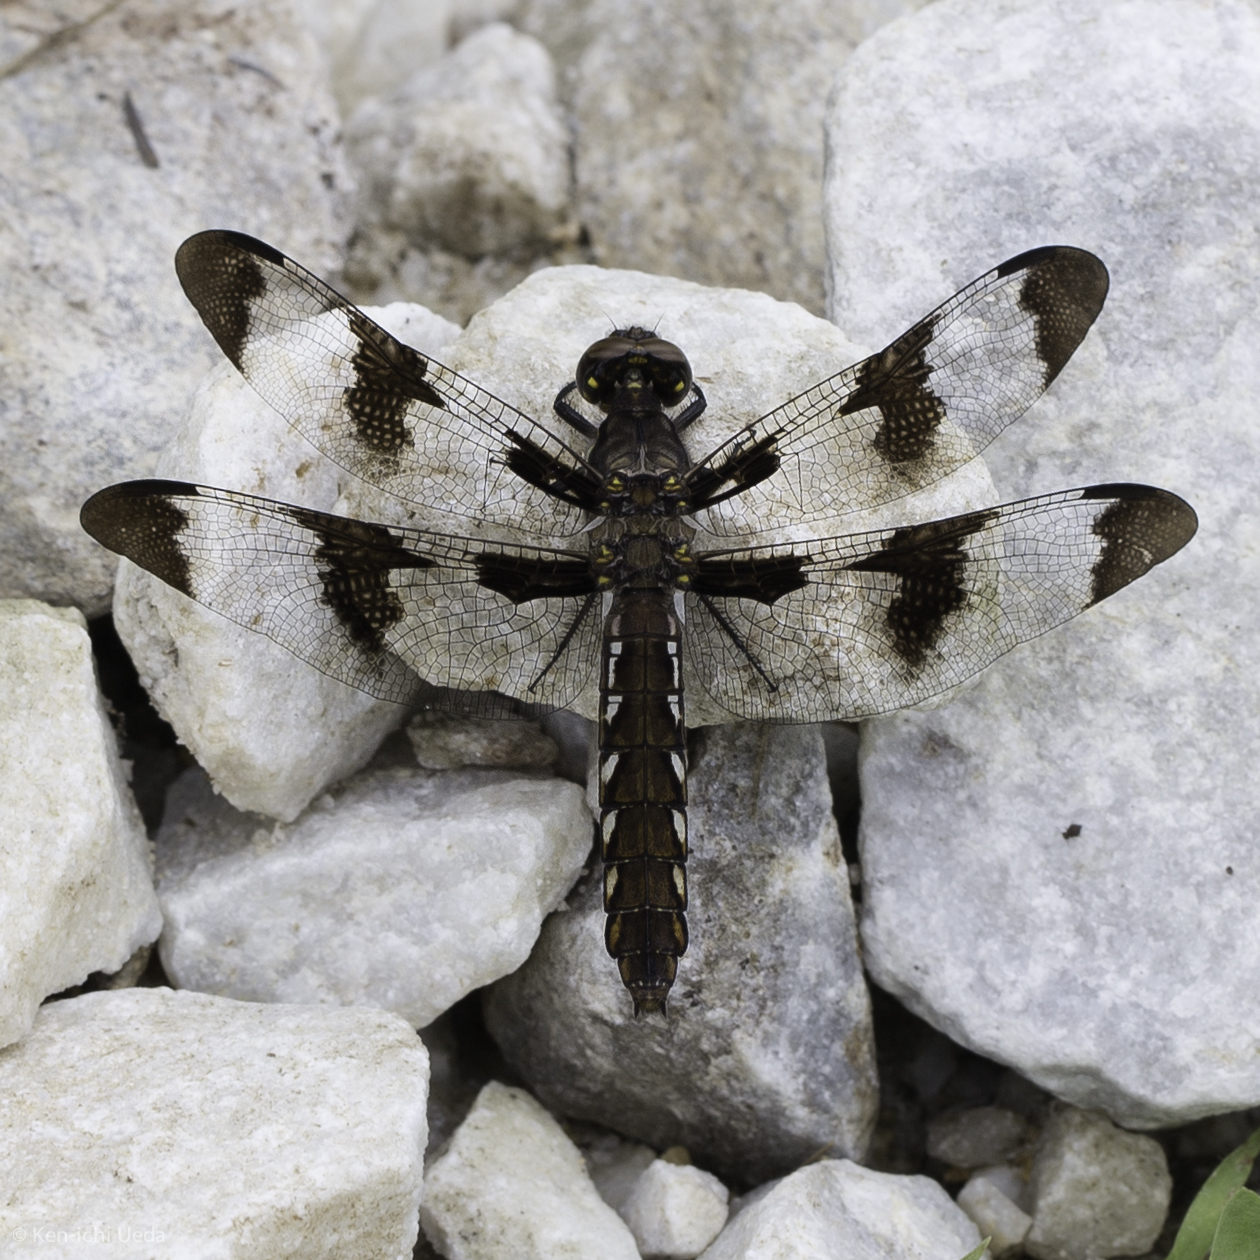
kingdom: Animalia
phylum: Arthropoda
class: Insecta
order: Odonata
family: Libellulidae
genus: Plathemis
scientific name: Plathemis lydia
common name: Common whitetail
